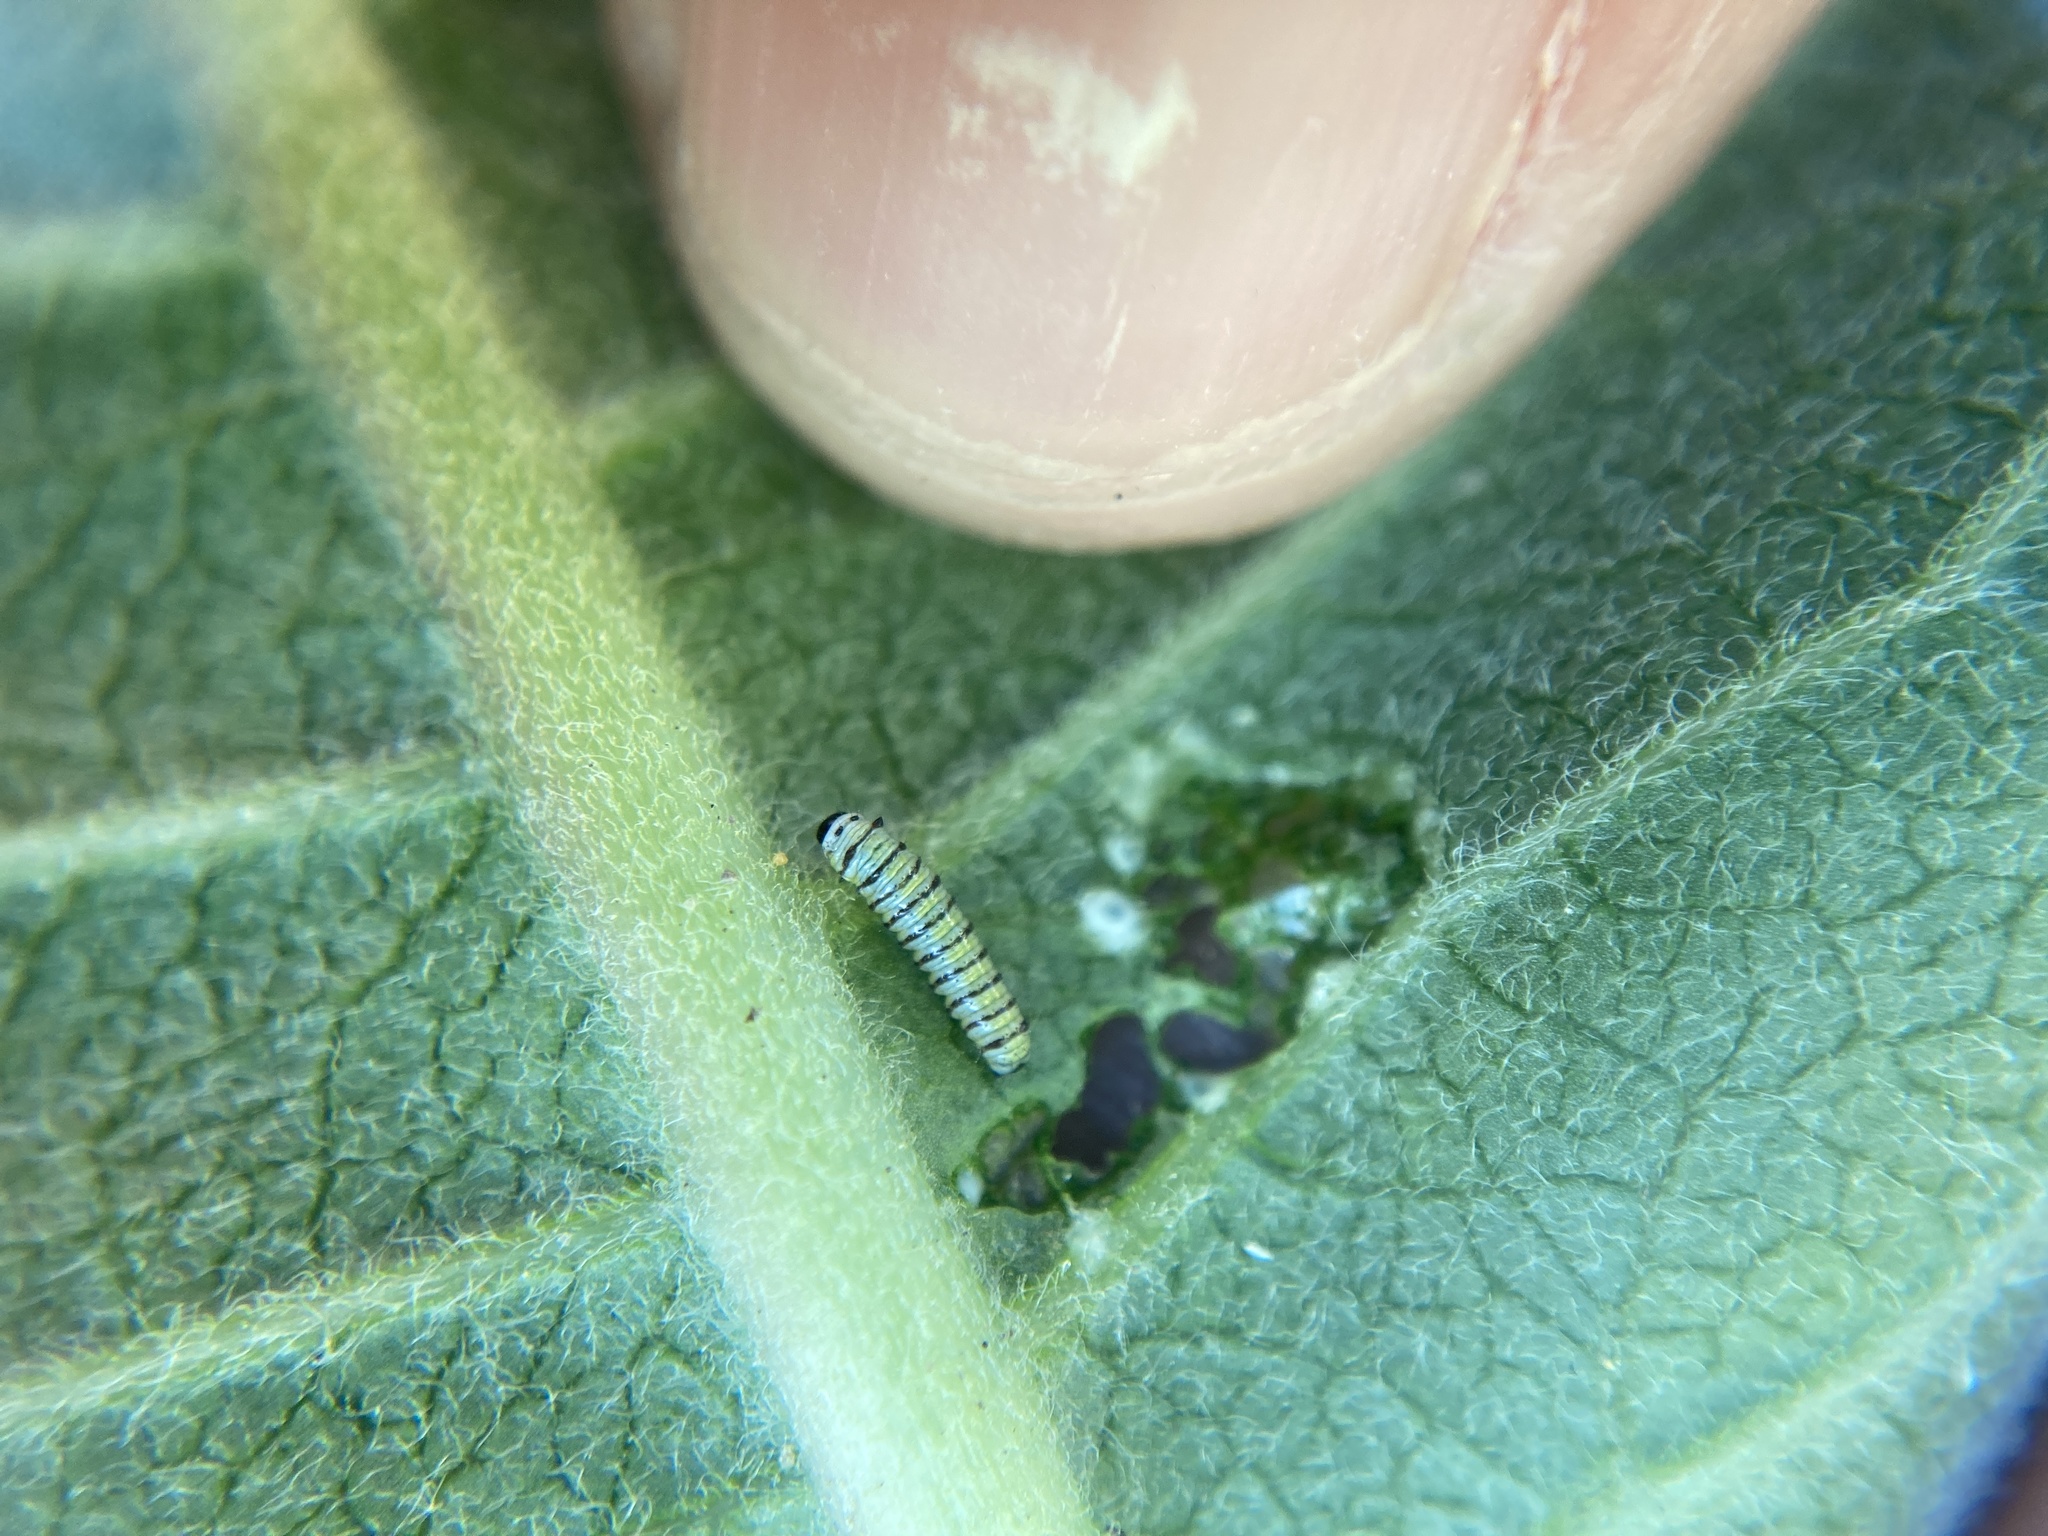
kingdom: Animalia
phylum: Arthropoda
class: Insecta
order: Lepidoptera
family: Nymphalidae
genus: Danaus
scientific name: Danaus plexippus
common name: Monarch
